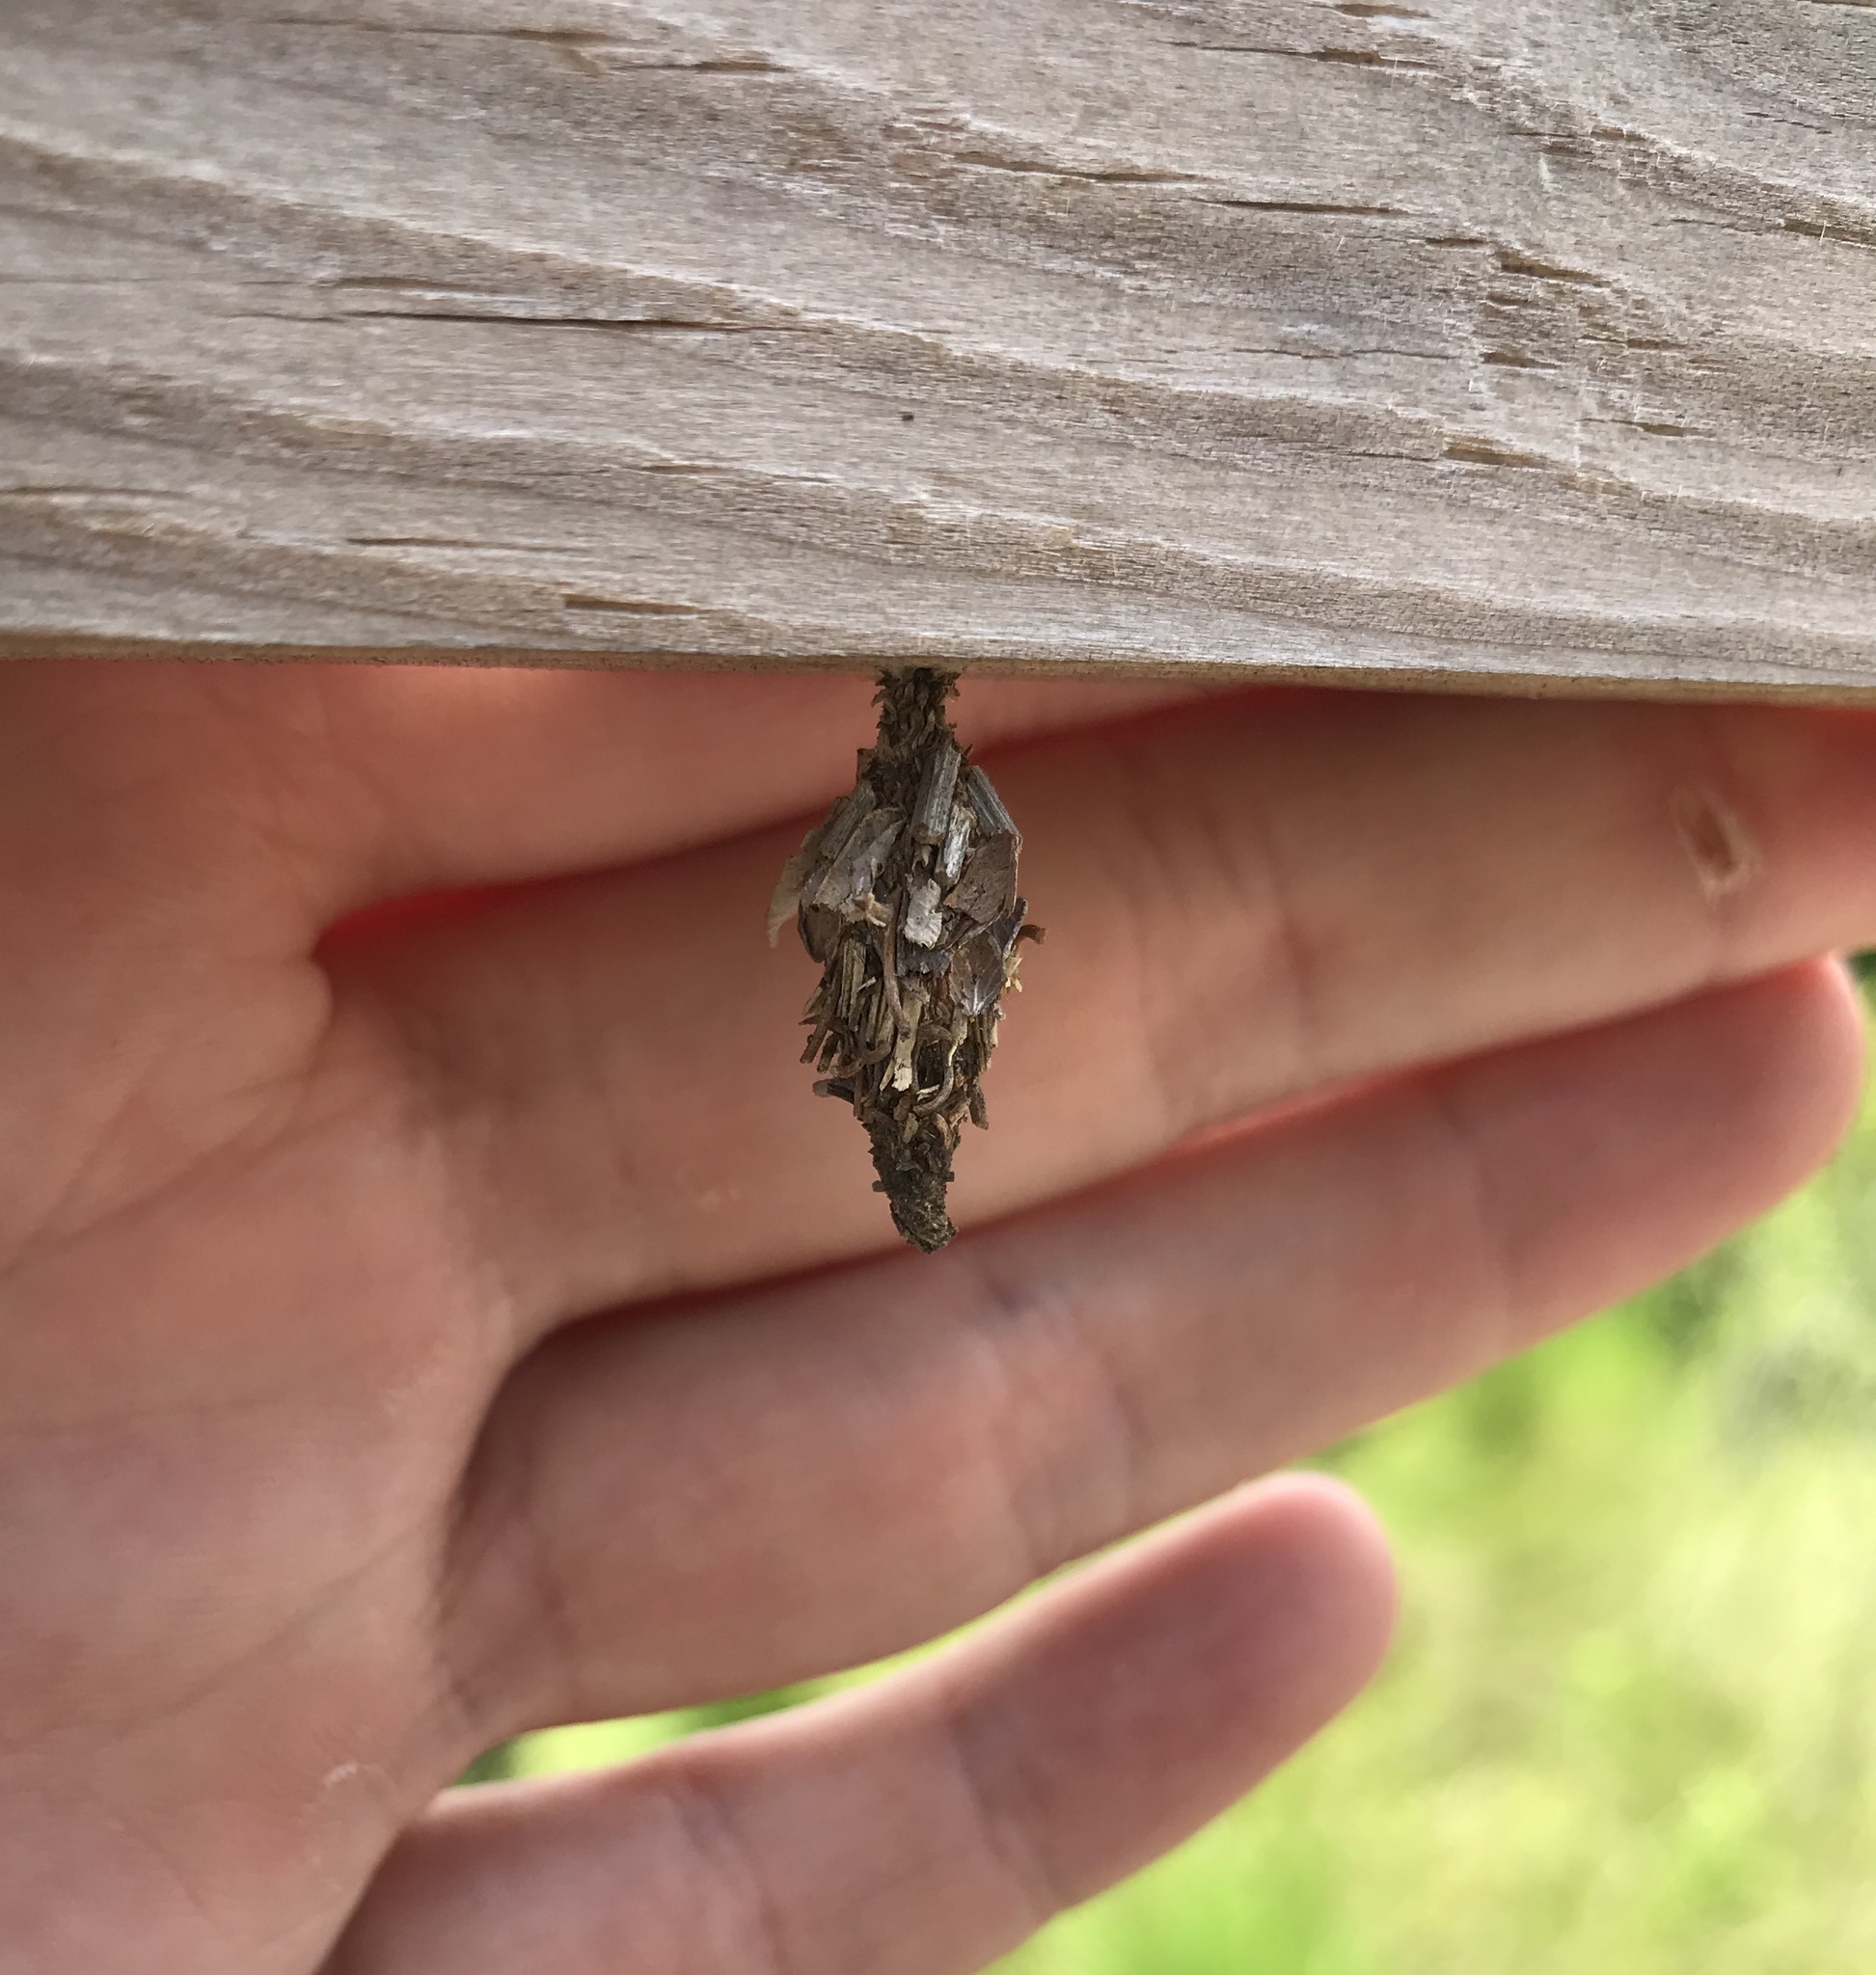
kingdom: Animalia
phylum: Arthropoda
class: Insecta
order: Lepidoptera
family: Psychidae
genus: Oiketicus
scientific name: Oiketicus
